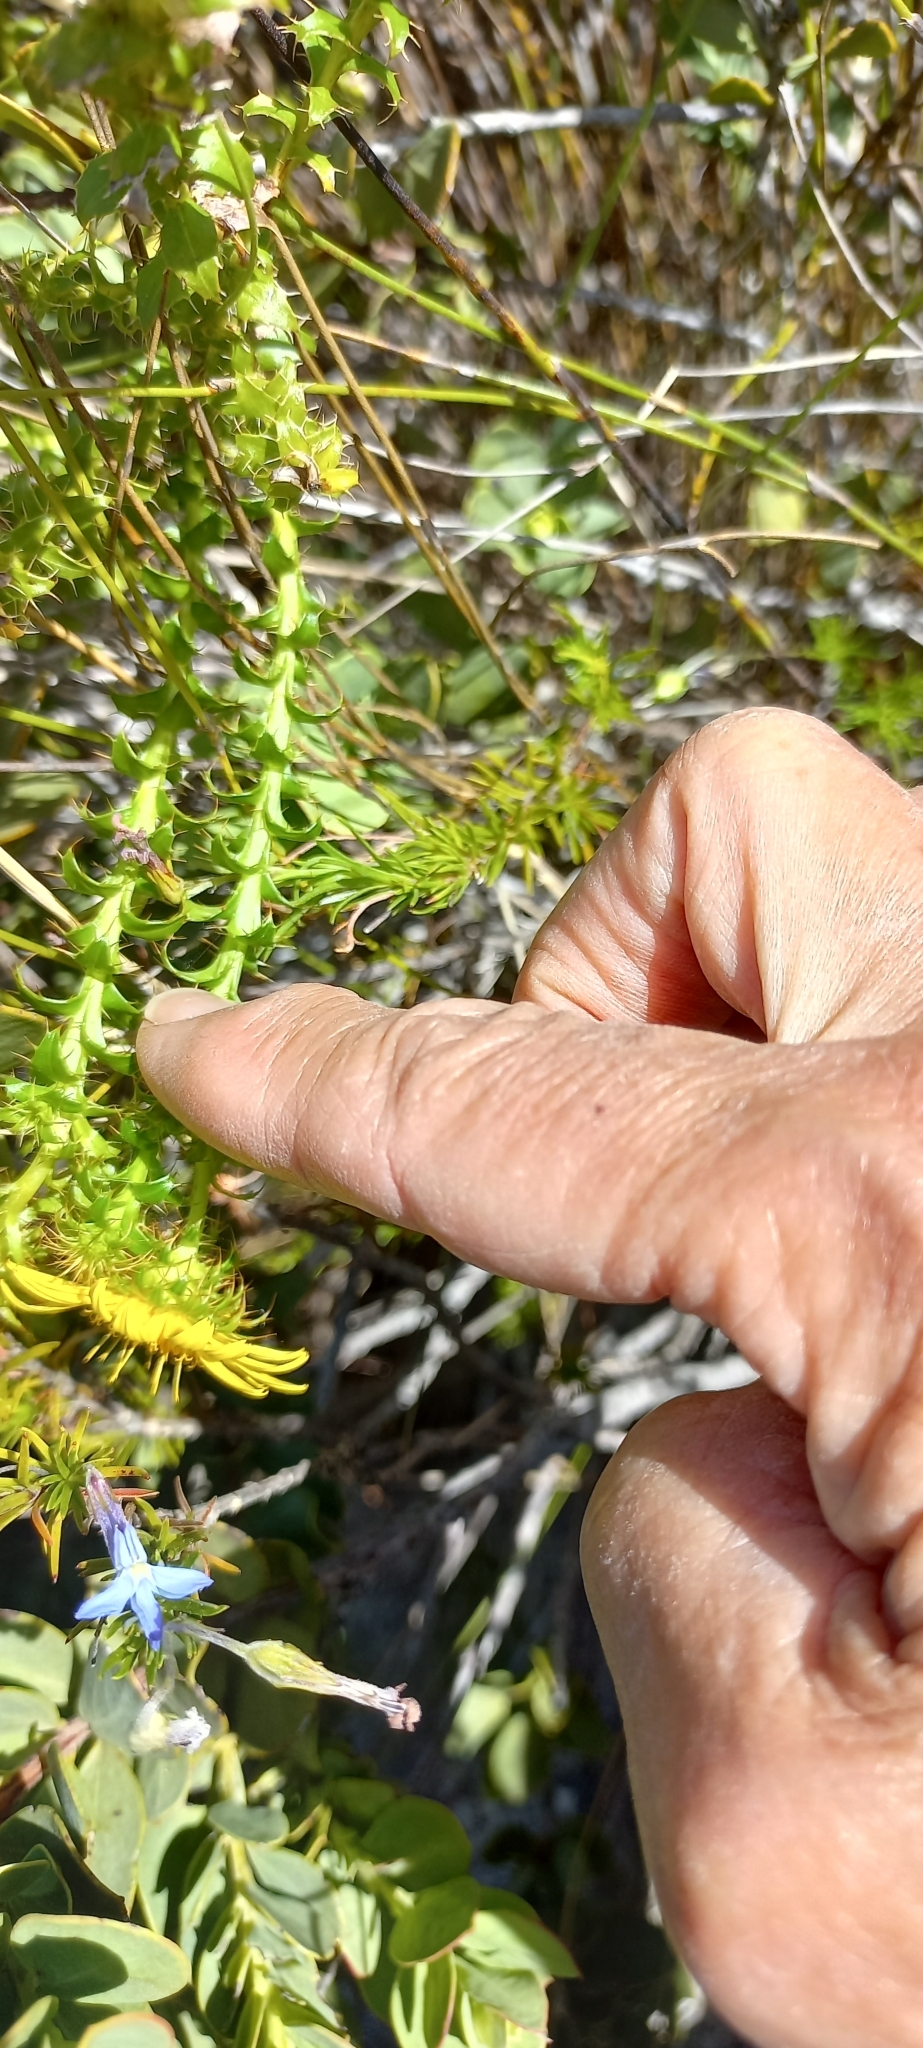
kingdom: Plantae
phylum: Tracheophyta
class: Magnoliopsida
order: Asterales
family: Asteraceae
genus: Cullumia
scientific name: Cullumia setosa
